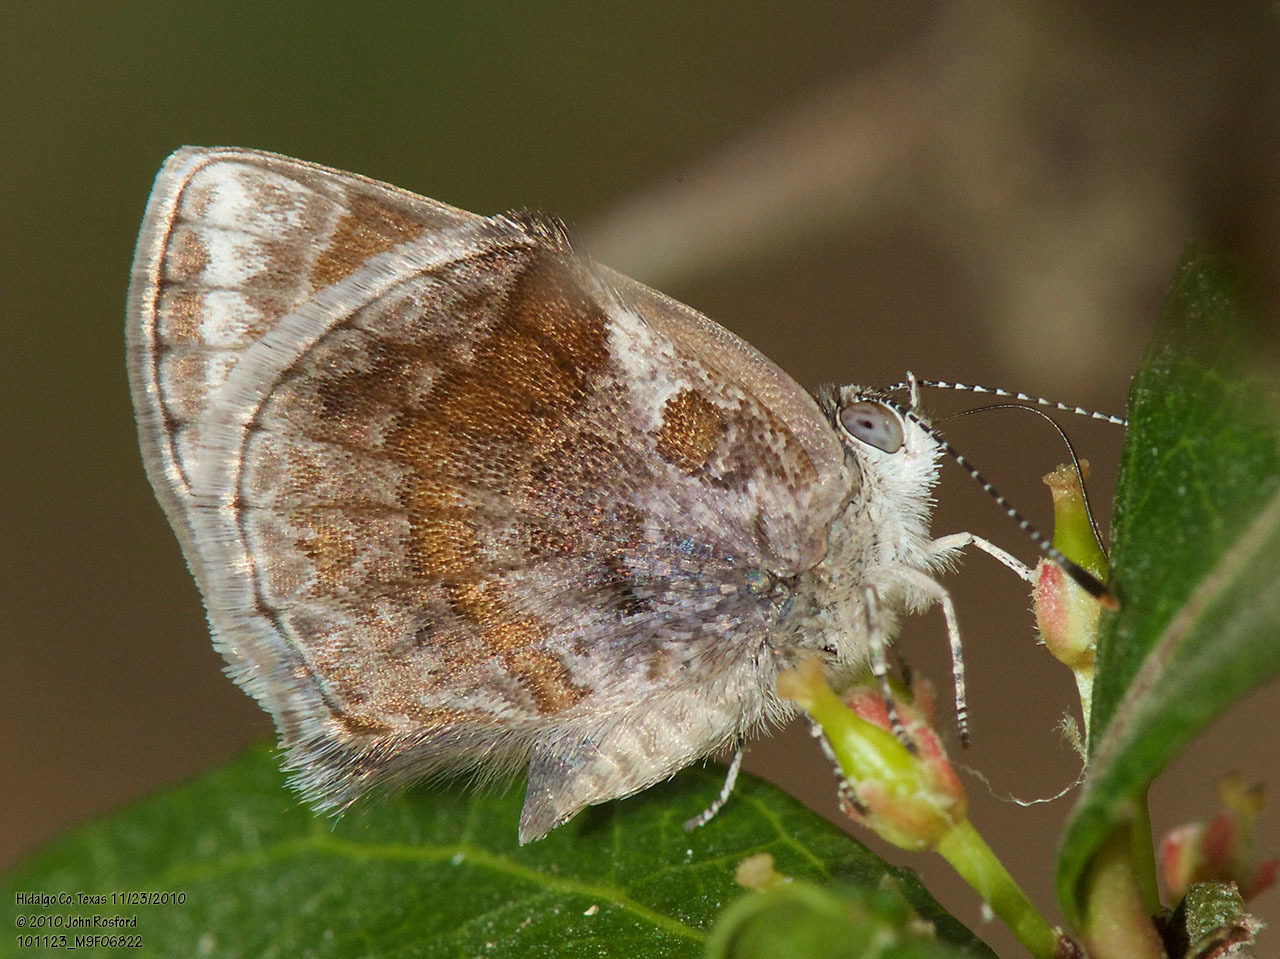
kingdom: Animalia
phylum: Arthropoda
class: Insecta
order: Lepidoptera
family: Lycaenidae
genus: Strymon
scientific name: Strymon bazochii
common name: Lantana scrub-hairstreak
